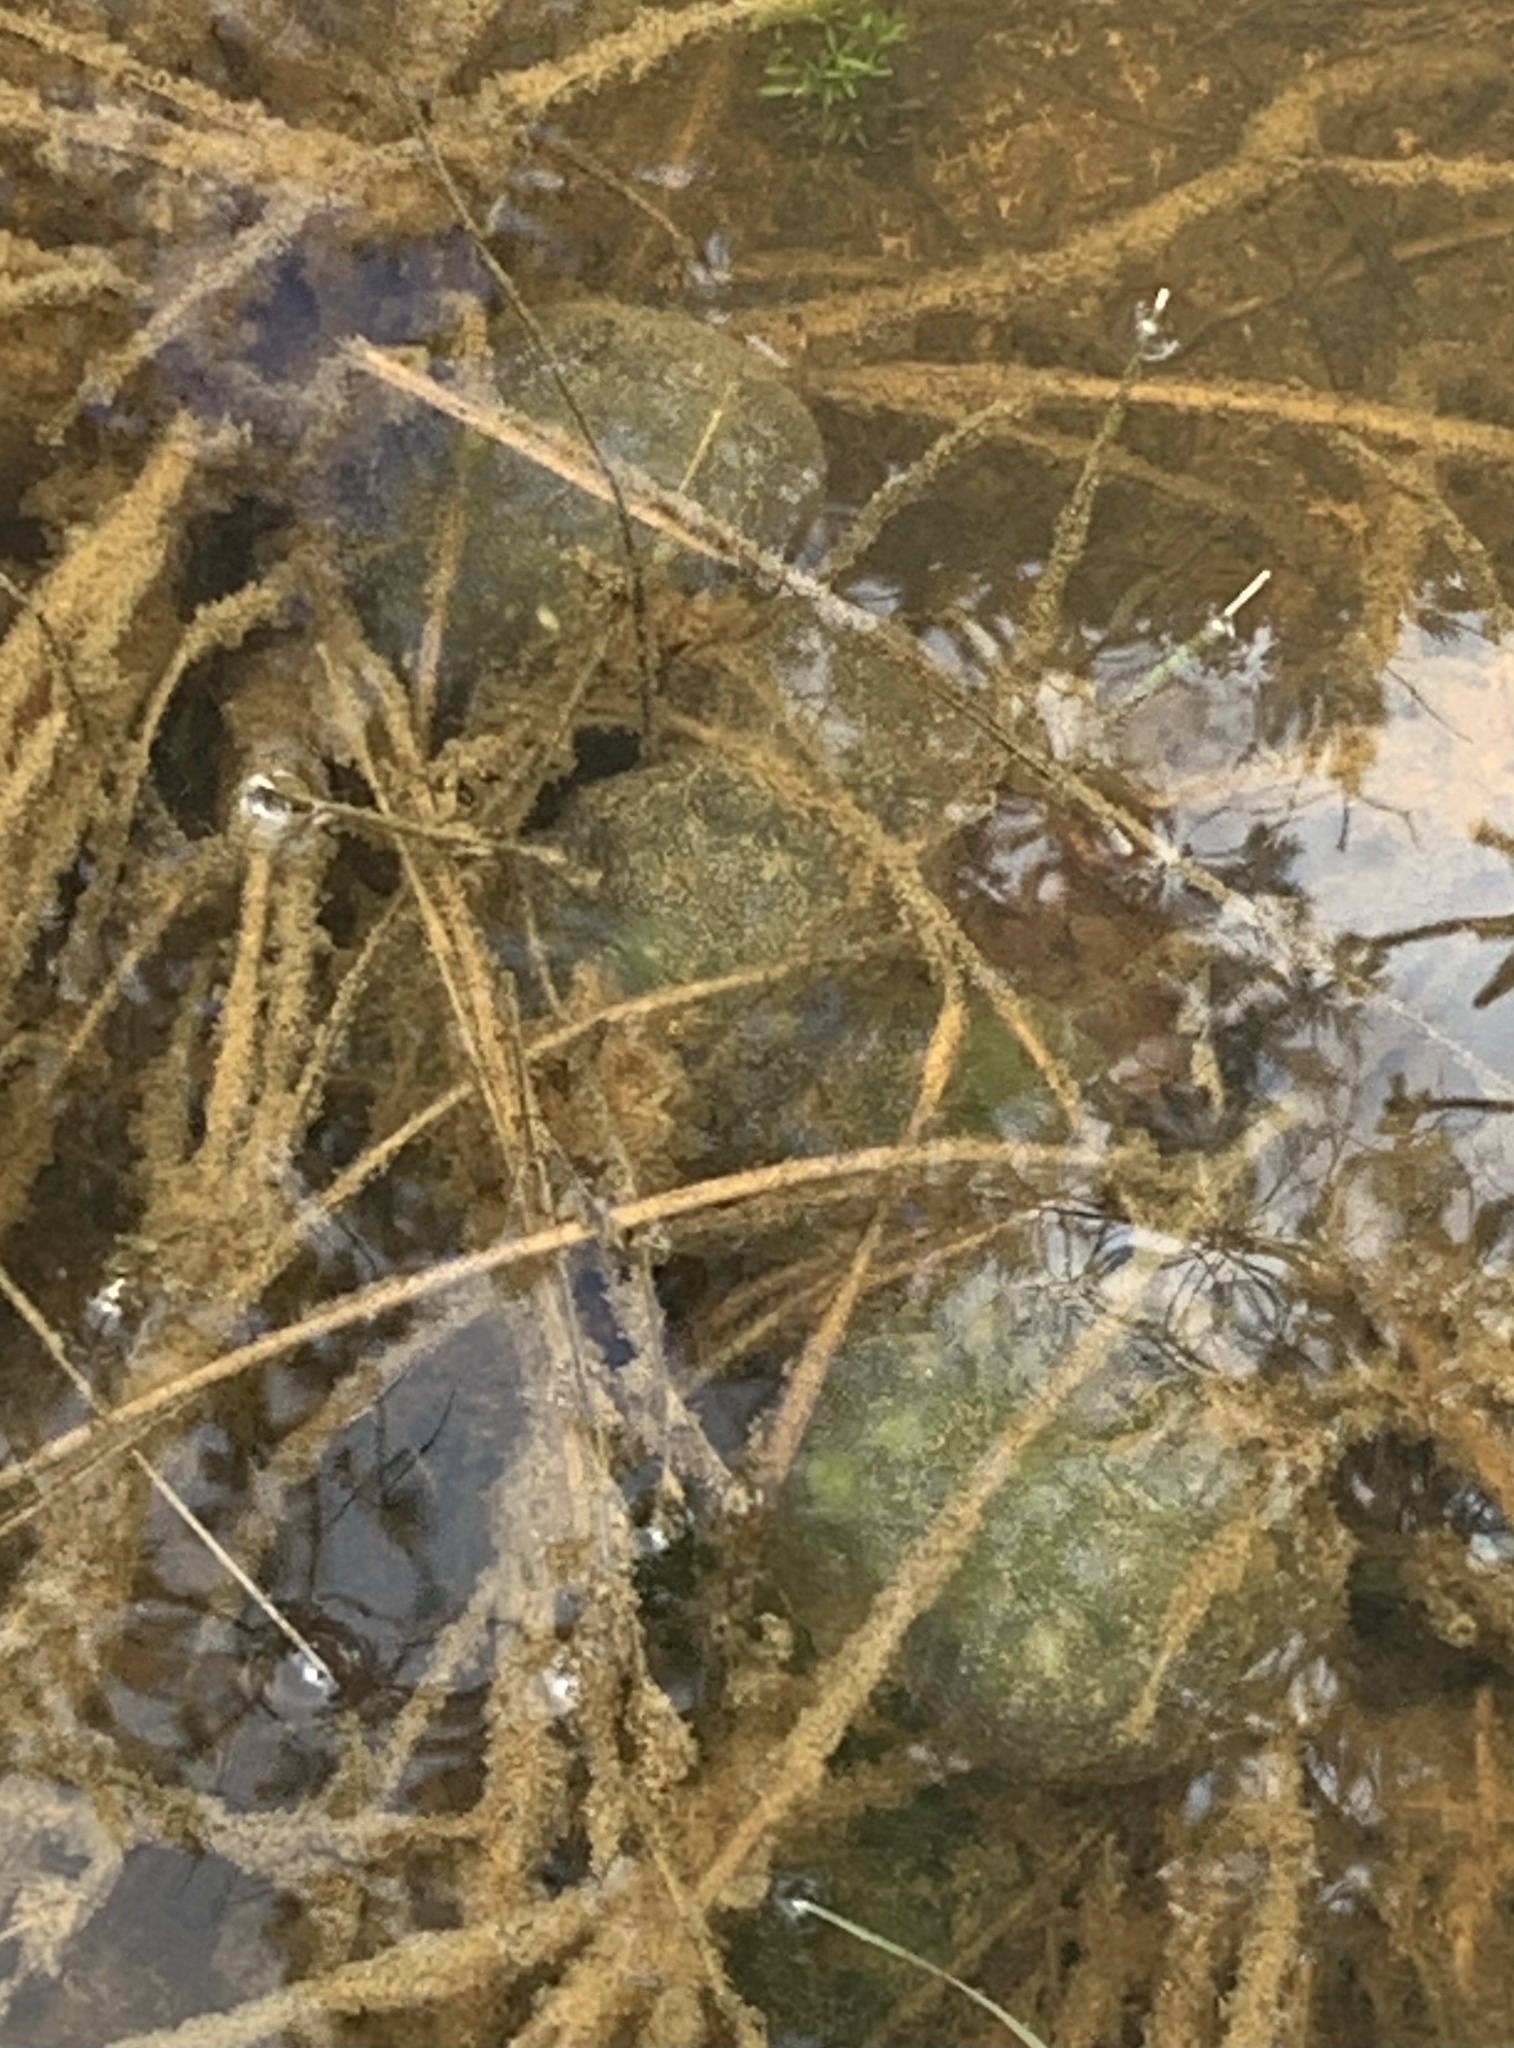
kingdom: Animalia
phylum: Chordata
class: Amphibia
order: Caudata
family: Ambystomatidae
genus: Ambystoma
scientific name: Ambystoma maculatum
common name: Spotted salamander
